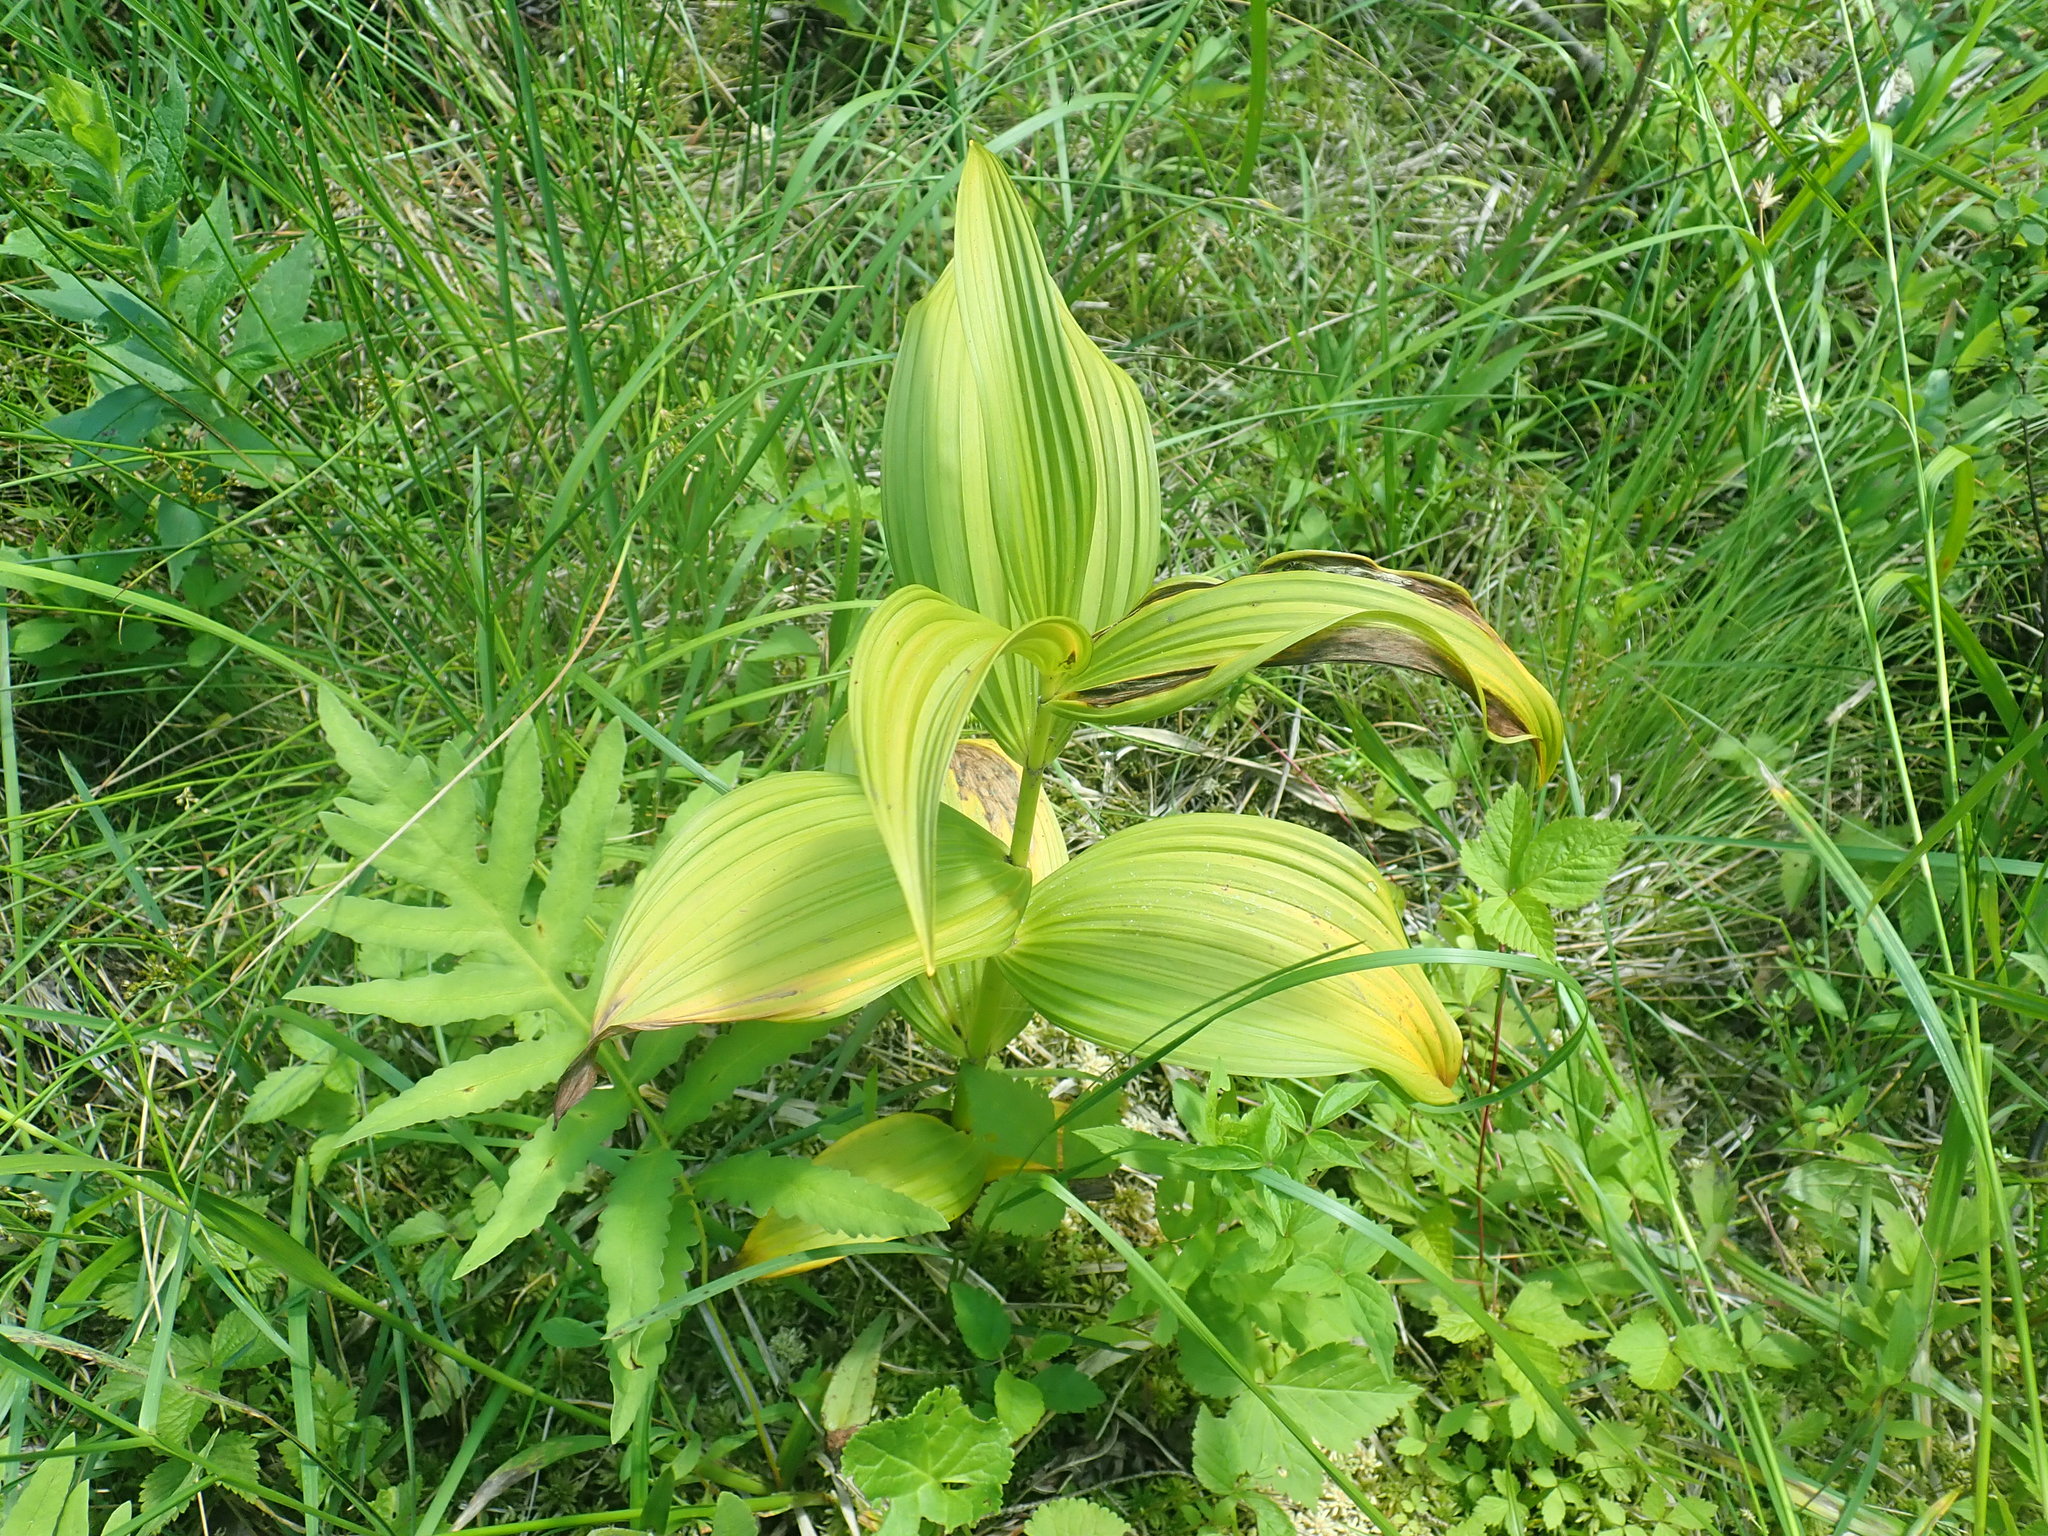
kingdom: Plantae
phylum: Tracheophyta
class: Liliopsida
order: Liliales
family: Melanthiaceae
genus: Veratrum
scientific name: Veratrum viride
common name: American false hellebore
